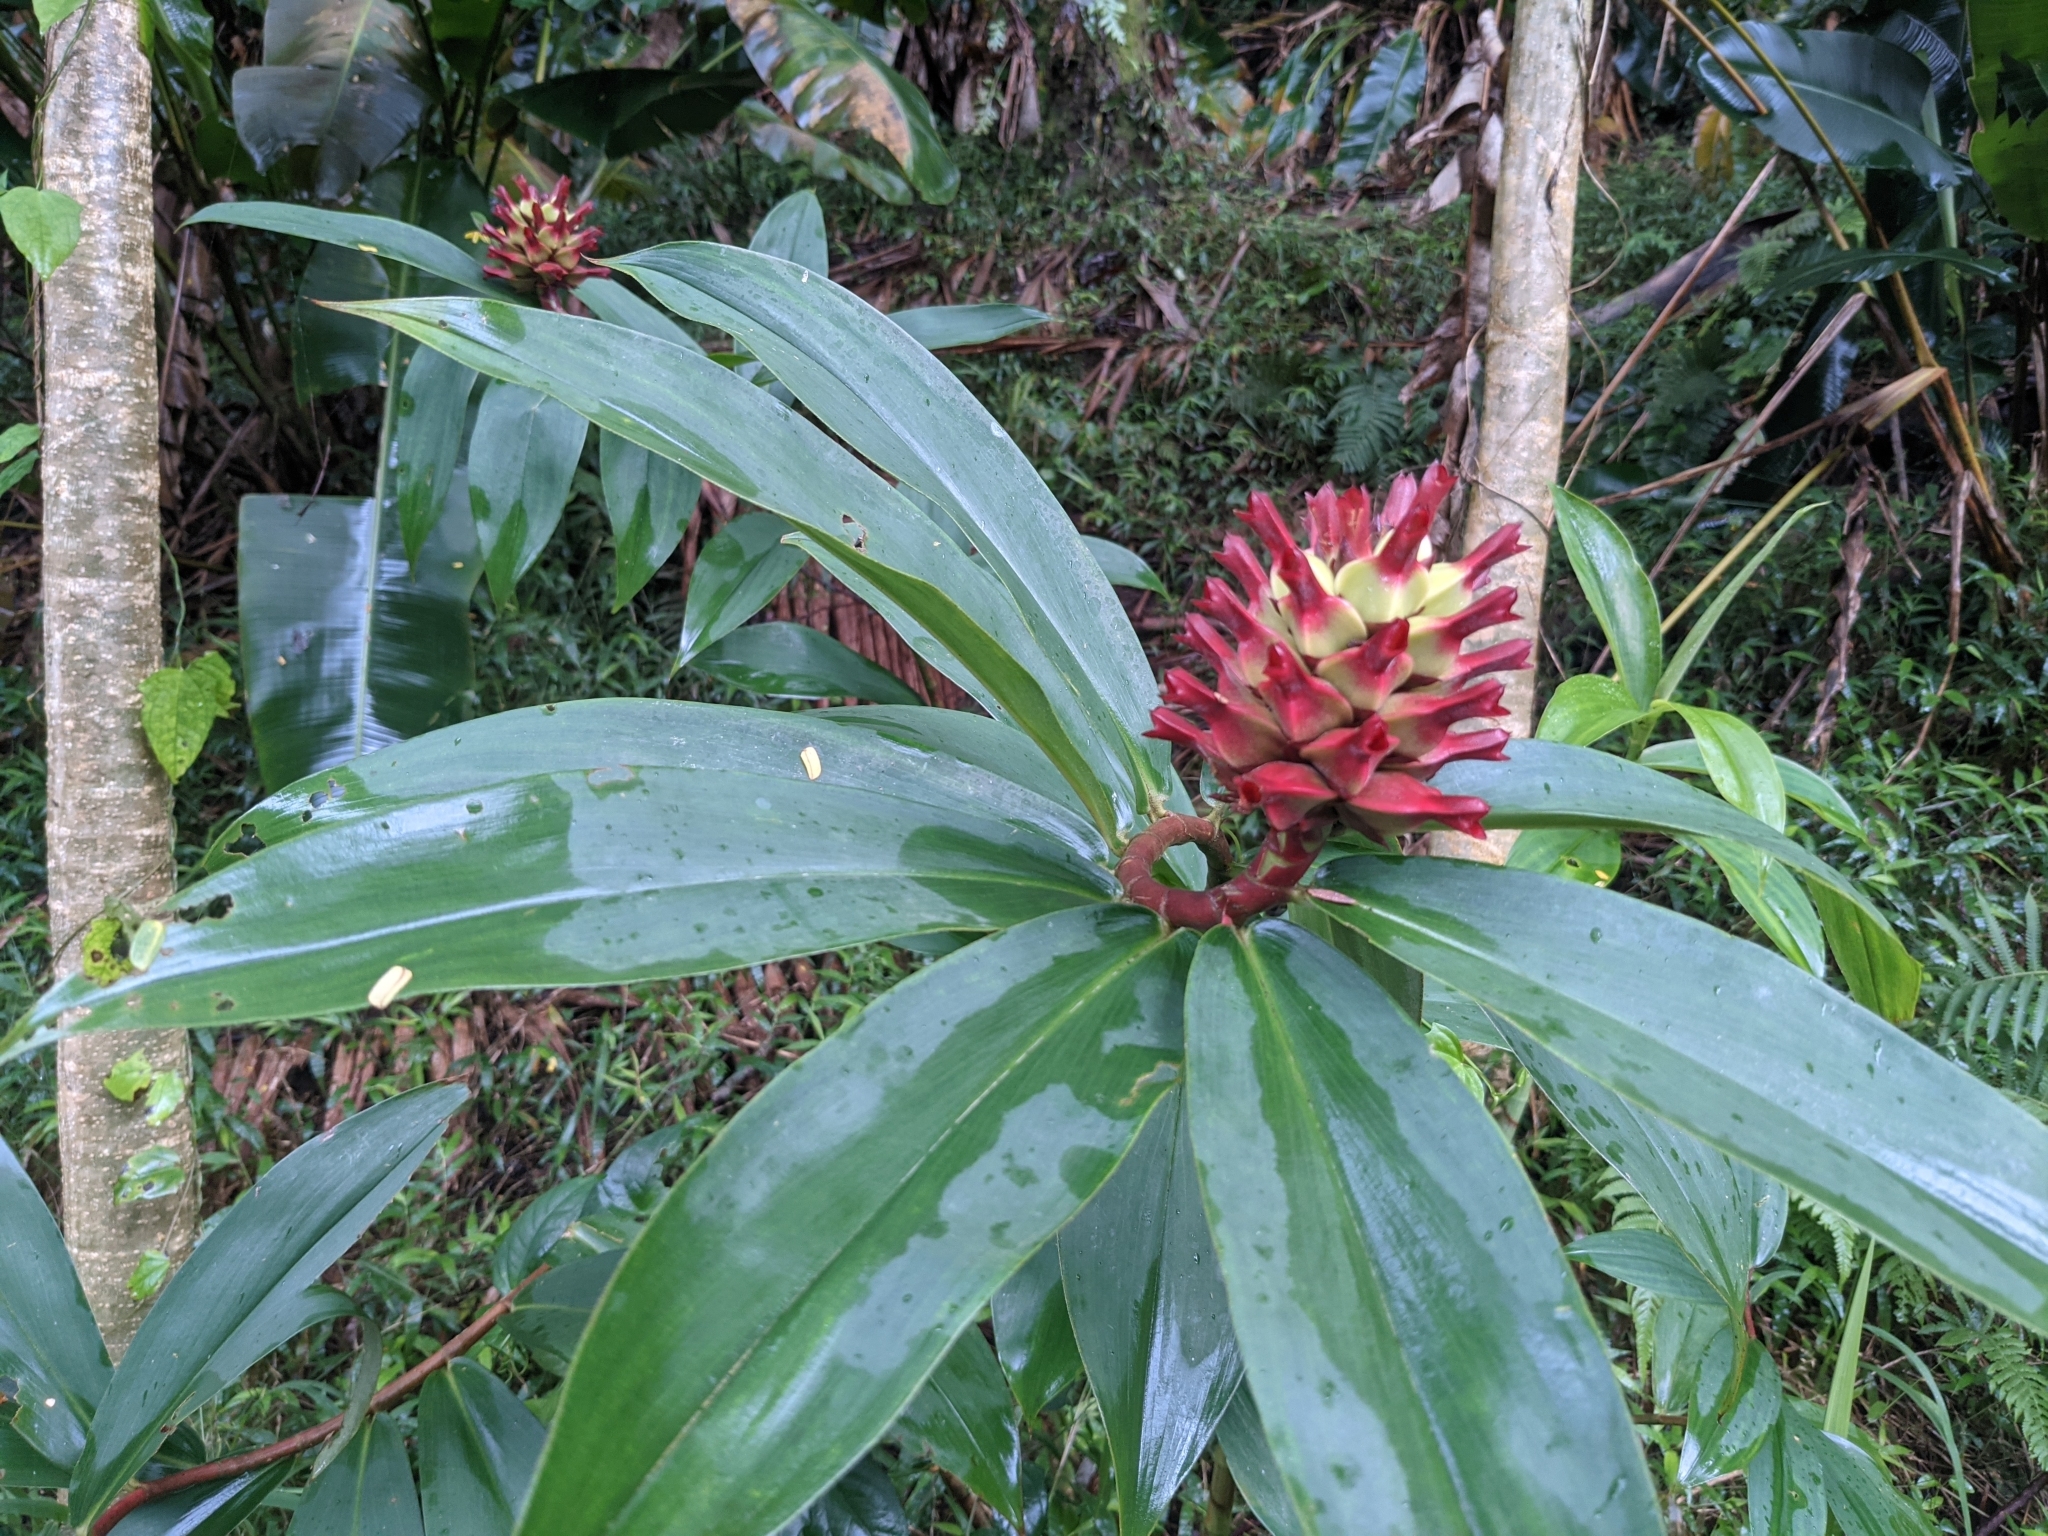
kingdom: Plantae
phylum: Tracheophyta
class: Liliopsida
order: Zingiberales
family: Costaceae
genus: Hellenia
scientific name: Hellenia speciosa
